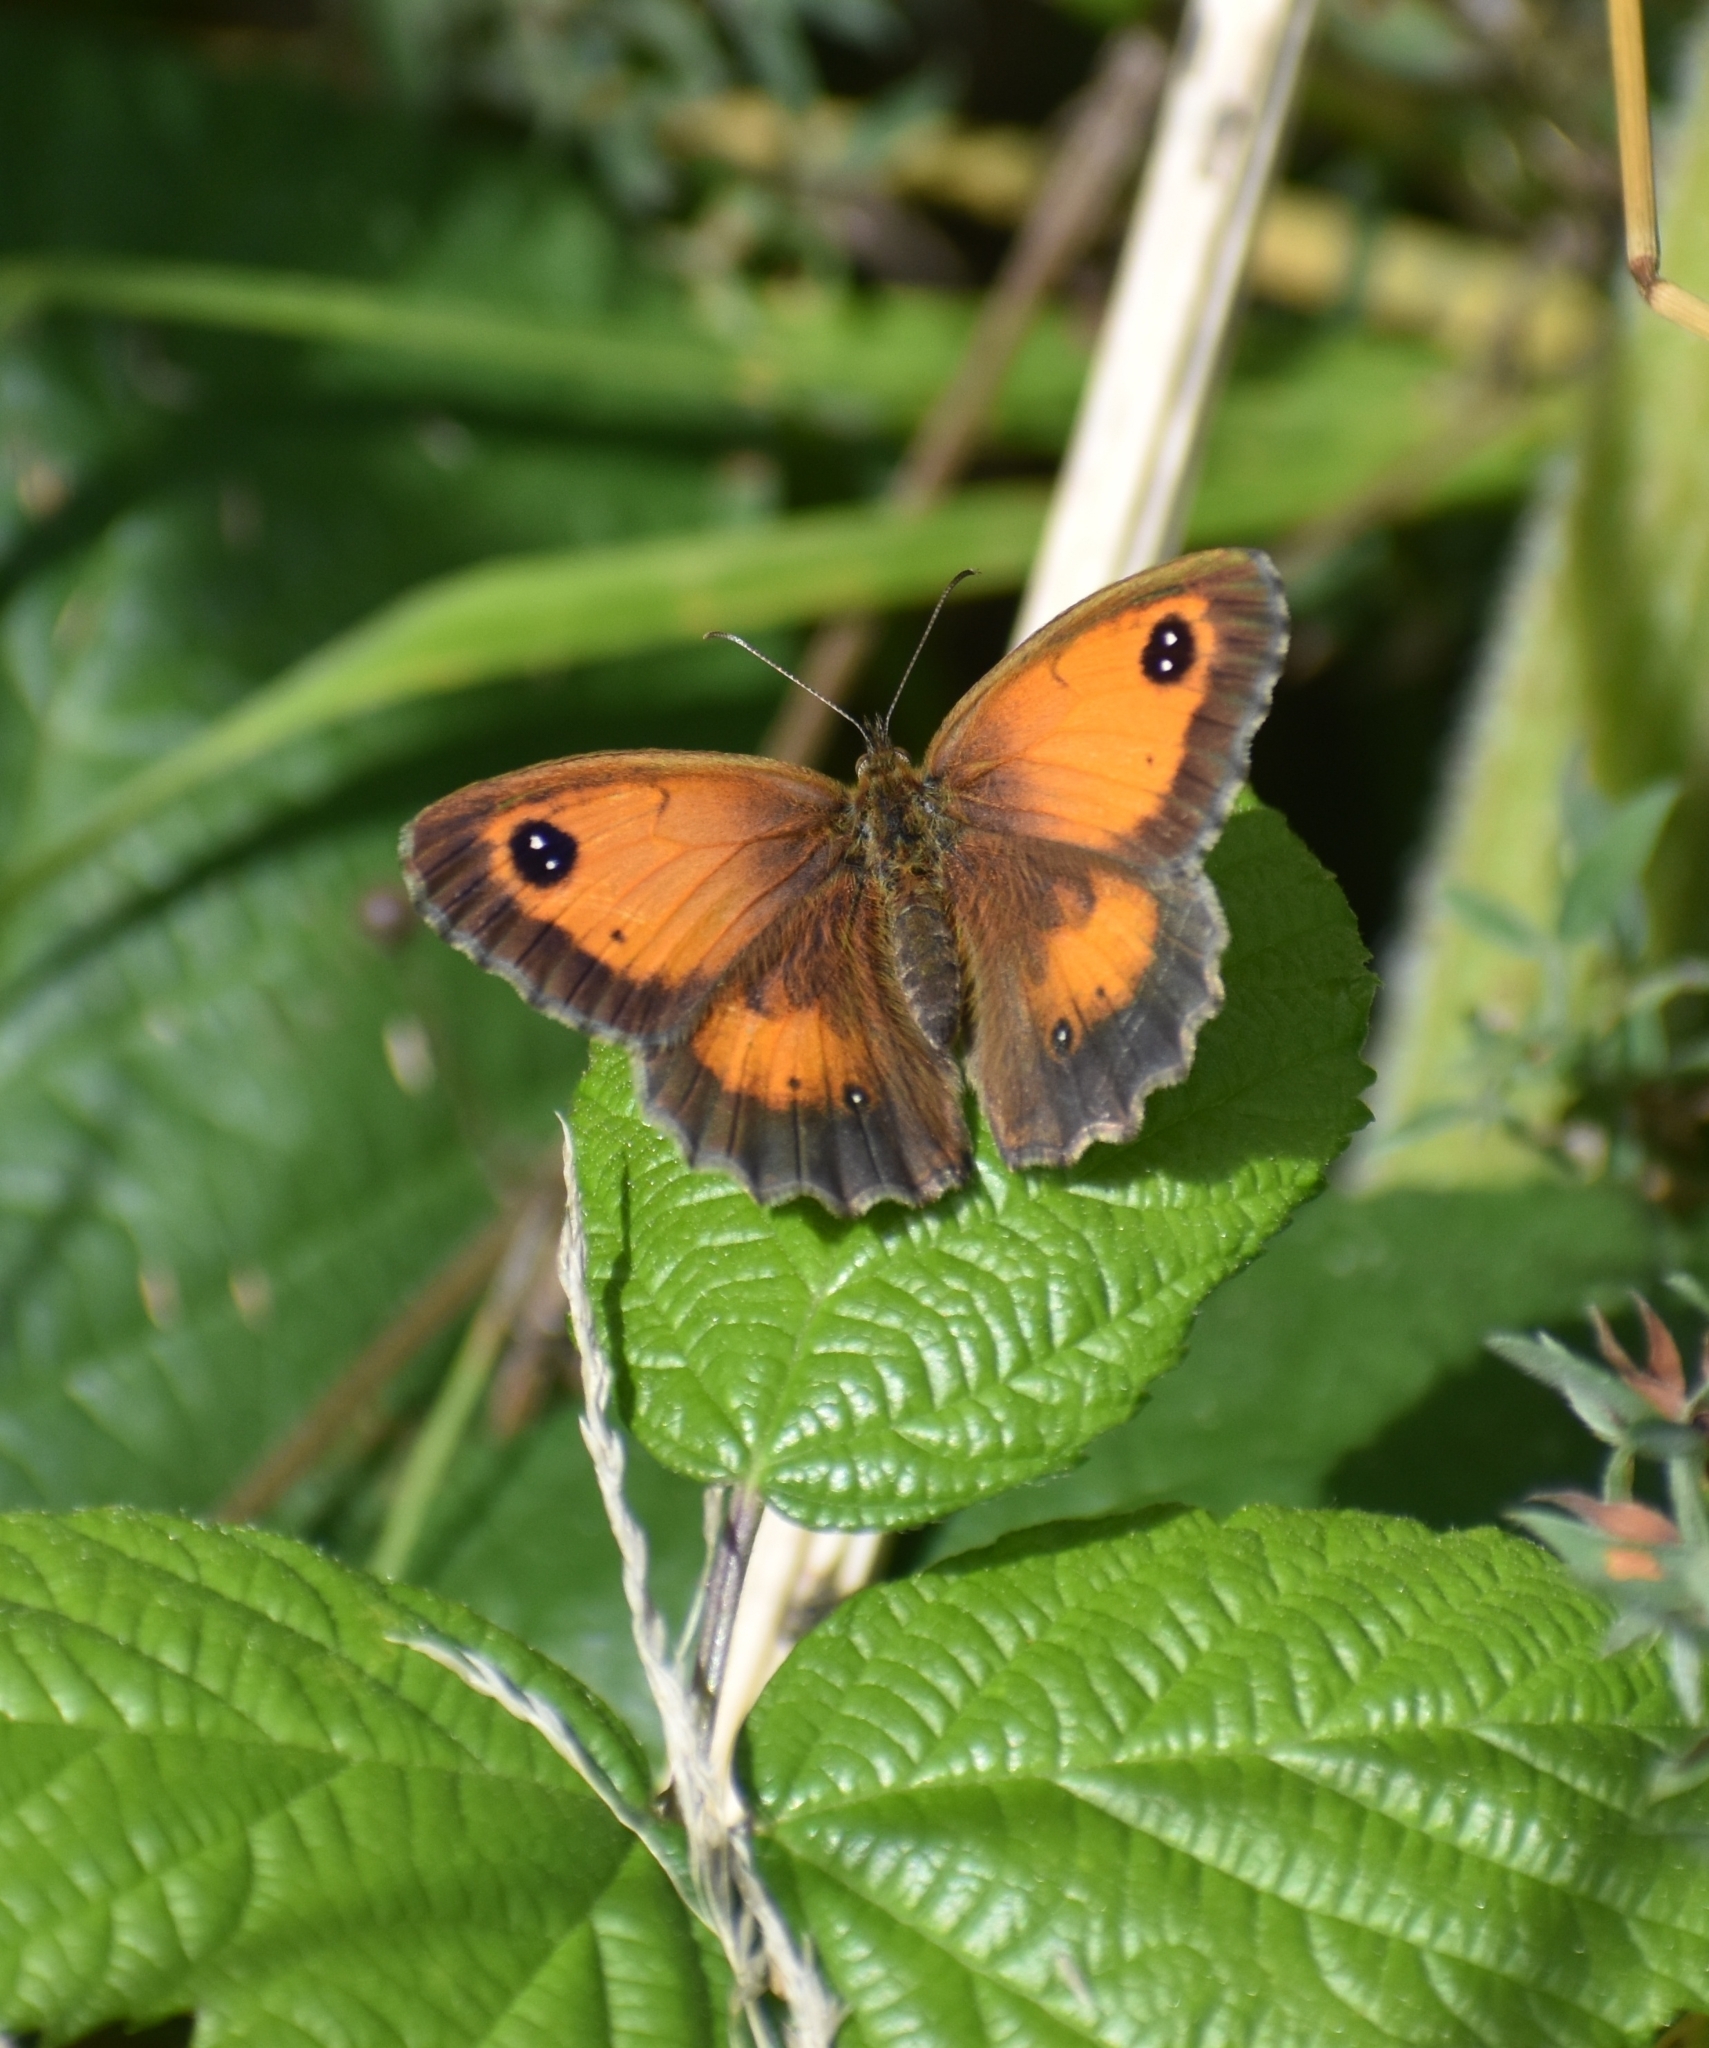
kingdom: Animalia
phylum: Arthropoda
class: Insecta
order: Lepidoptera
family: Nymphalidae
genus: Pyronia
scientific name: Pyronia tithonus
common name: Gatekeeper
